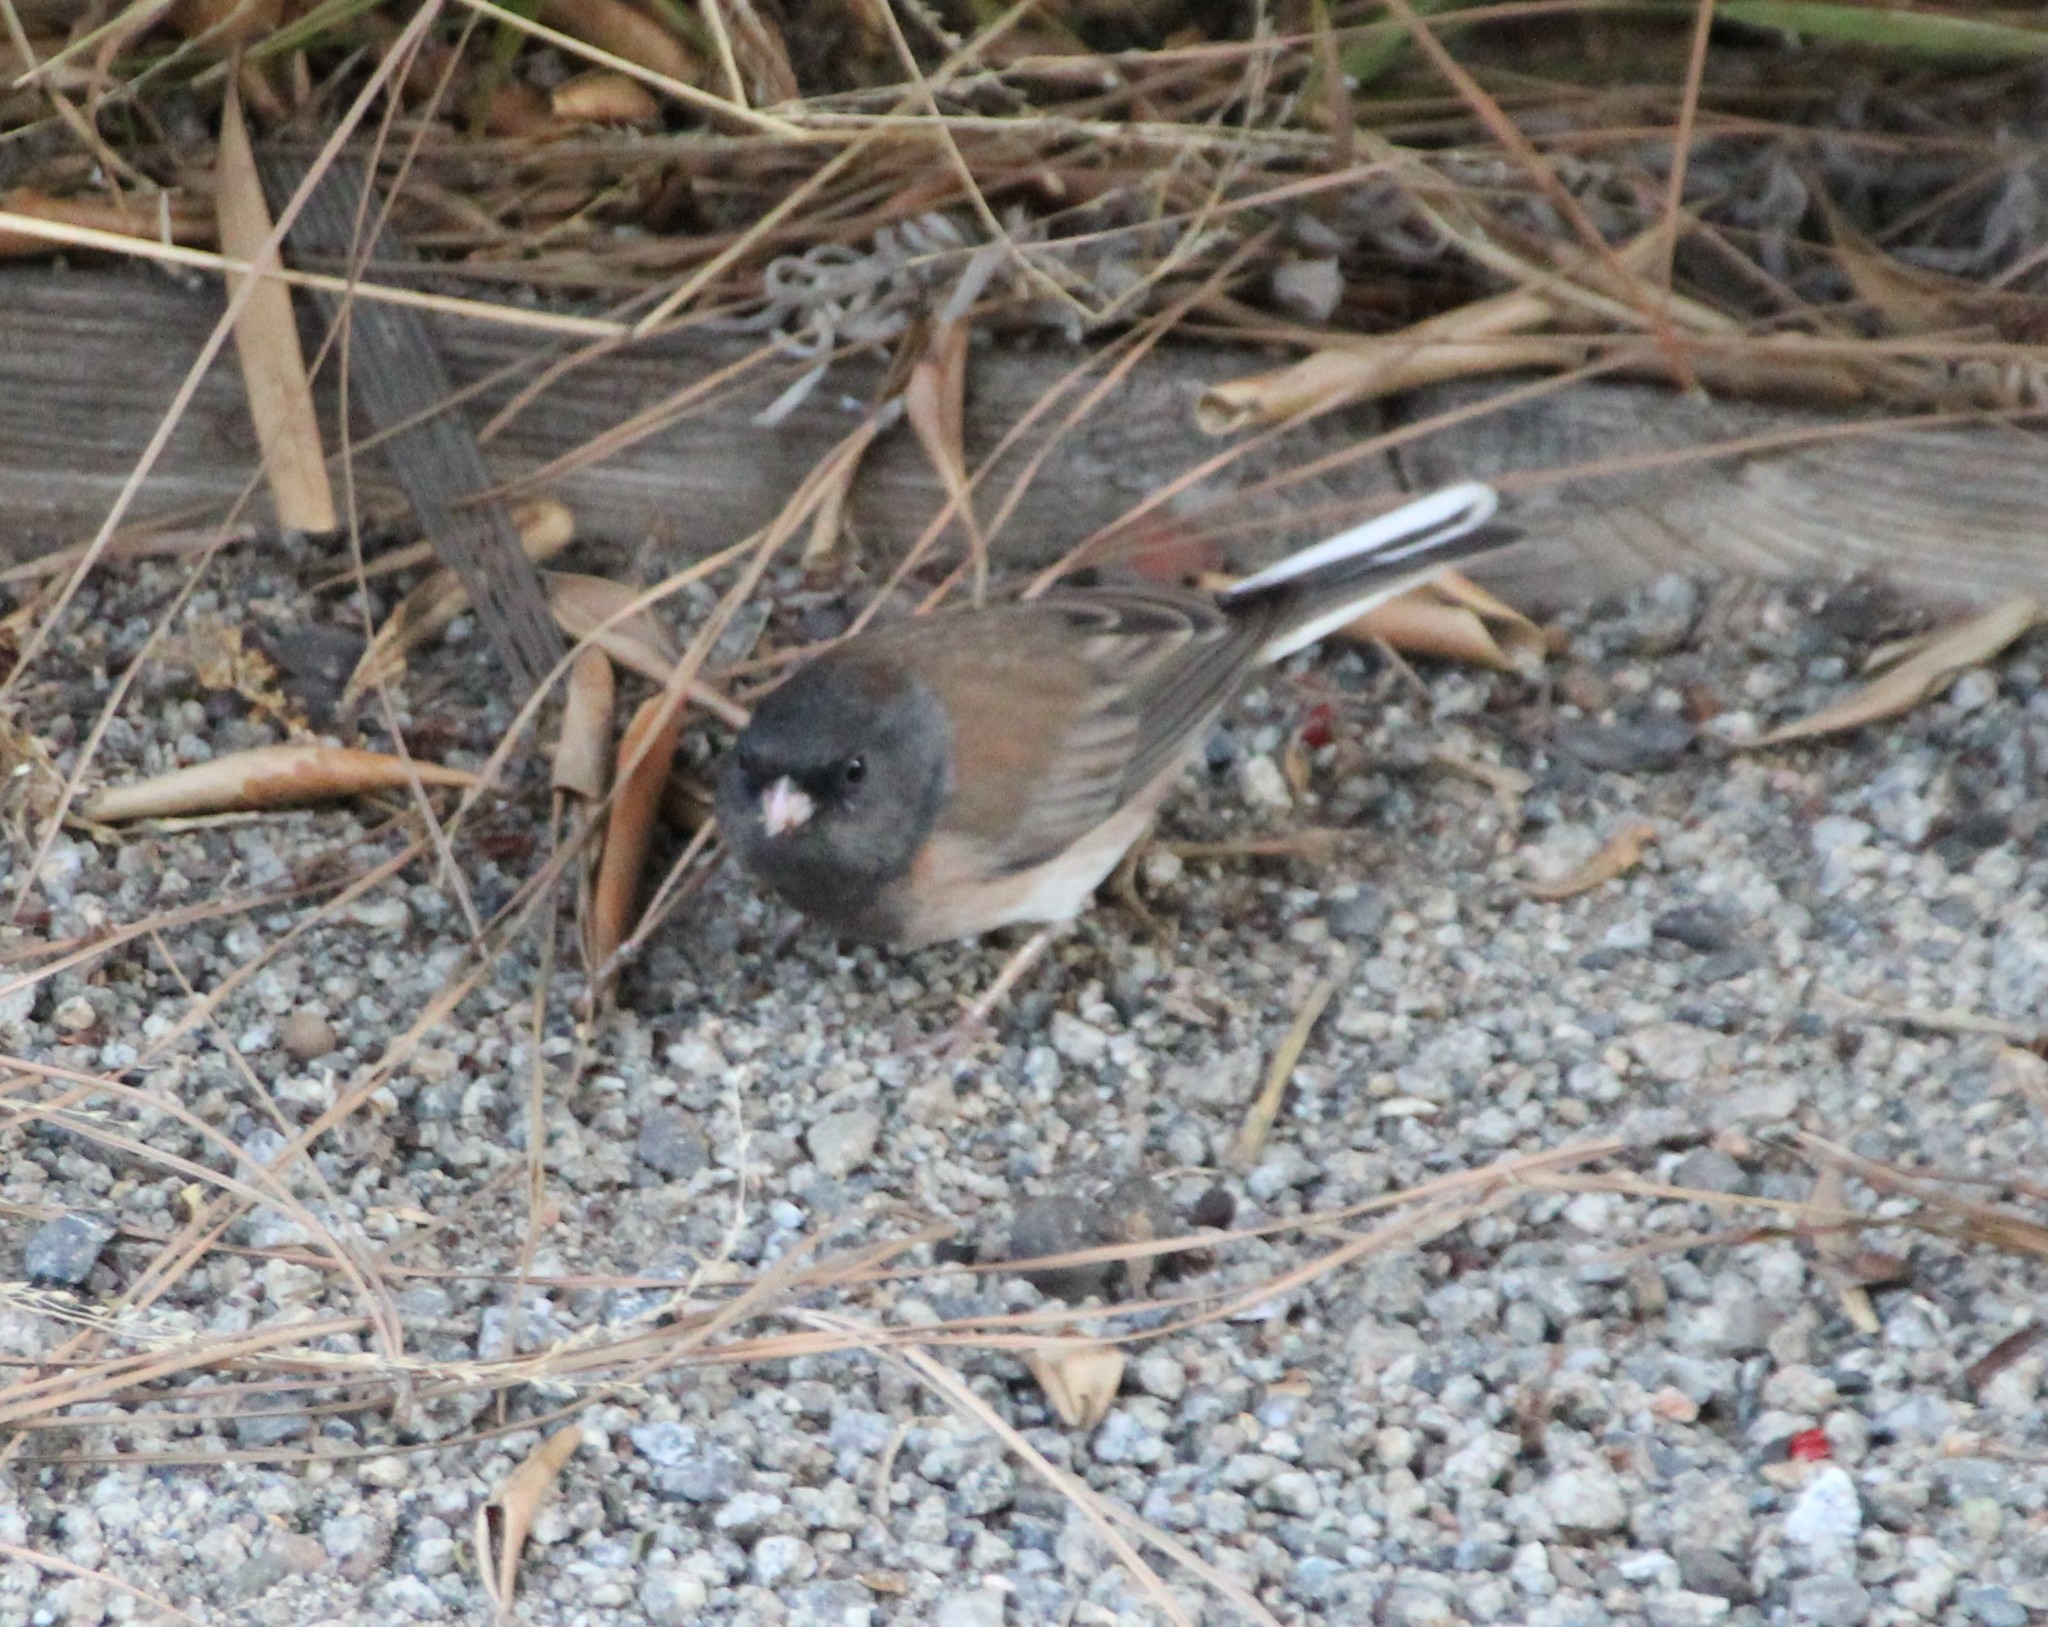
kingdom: Animalia
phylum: Chordata
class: Aves
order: Passeriformes
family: Passerellidae
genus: Junco
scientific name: Junco hyemalis
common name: Dark-eyed junco
